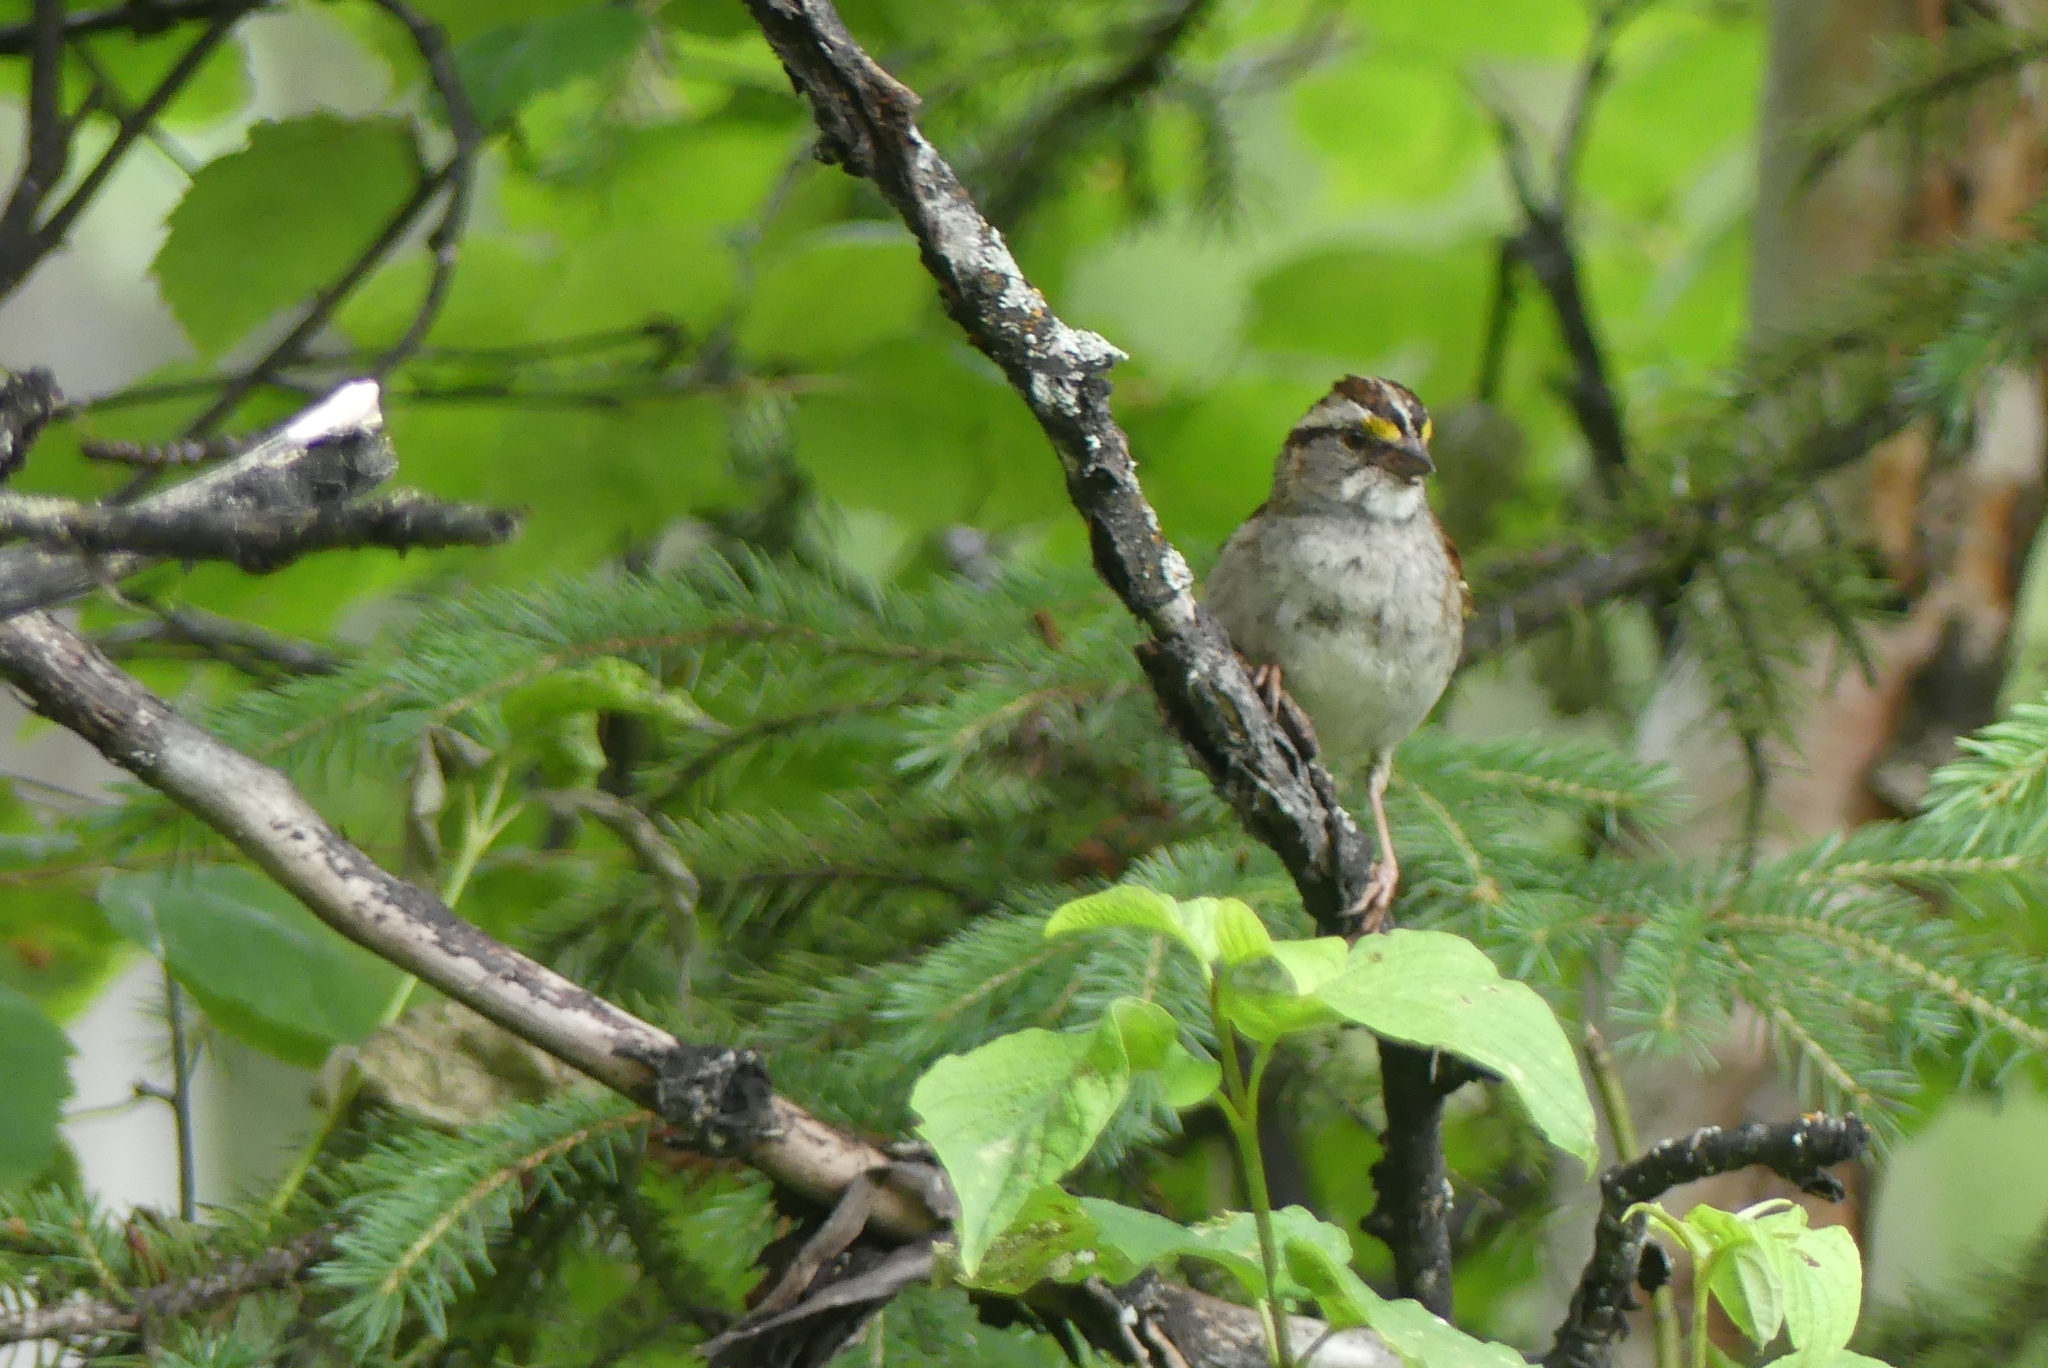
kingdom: Animalia
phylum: Chordata
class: Aves
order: Passeriformes
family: Passerellidae
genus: Zonotrichia
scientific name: Zonotrichia albicollis
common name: White-throated sparrow
